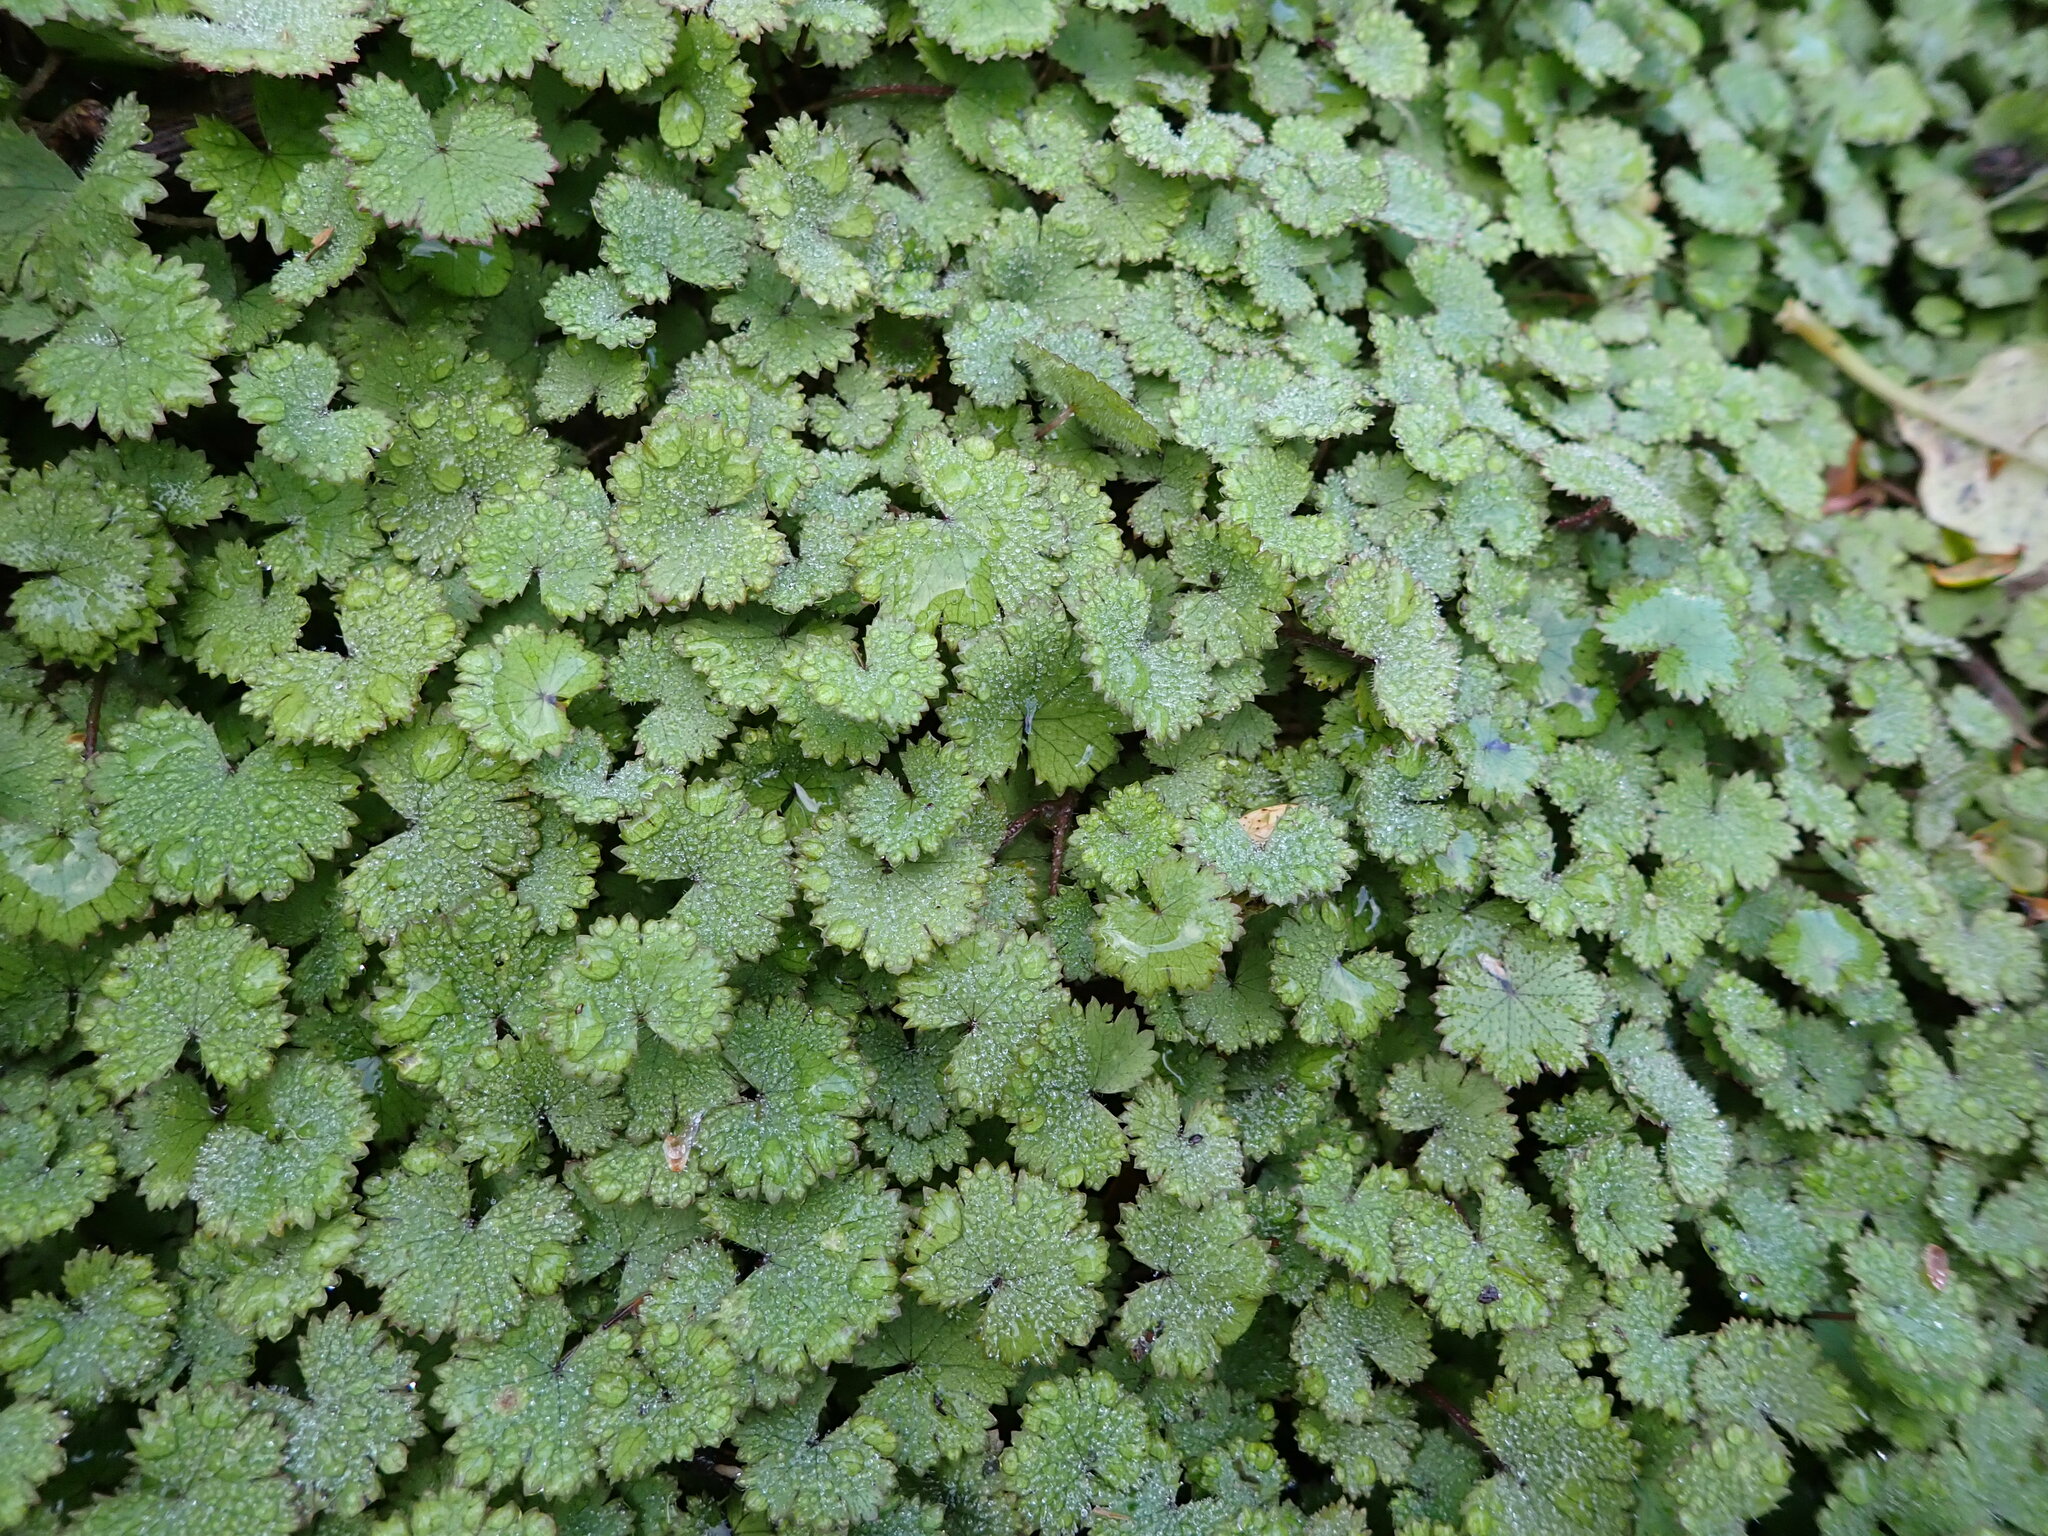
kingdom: Plantae
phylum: Tracheophyta
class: Magnoliopsida
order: Apiales
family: Araliaceae
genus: Hydrocotyle
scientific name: Hydrocotyle moschata
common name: Hairy pennywort
